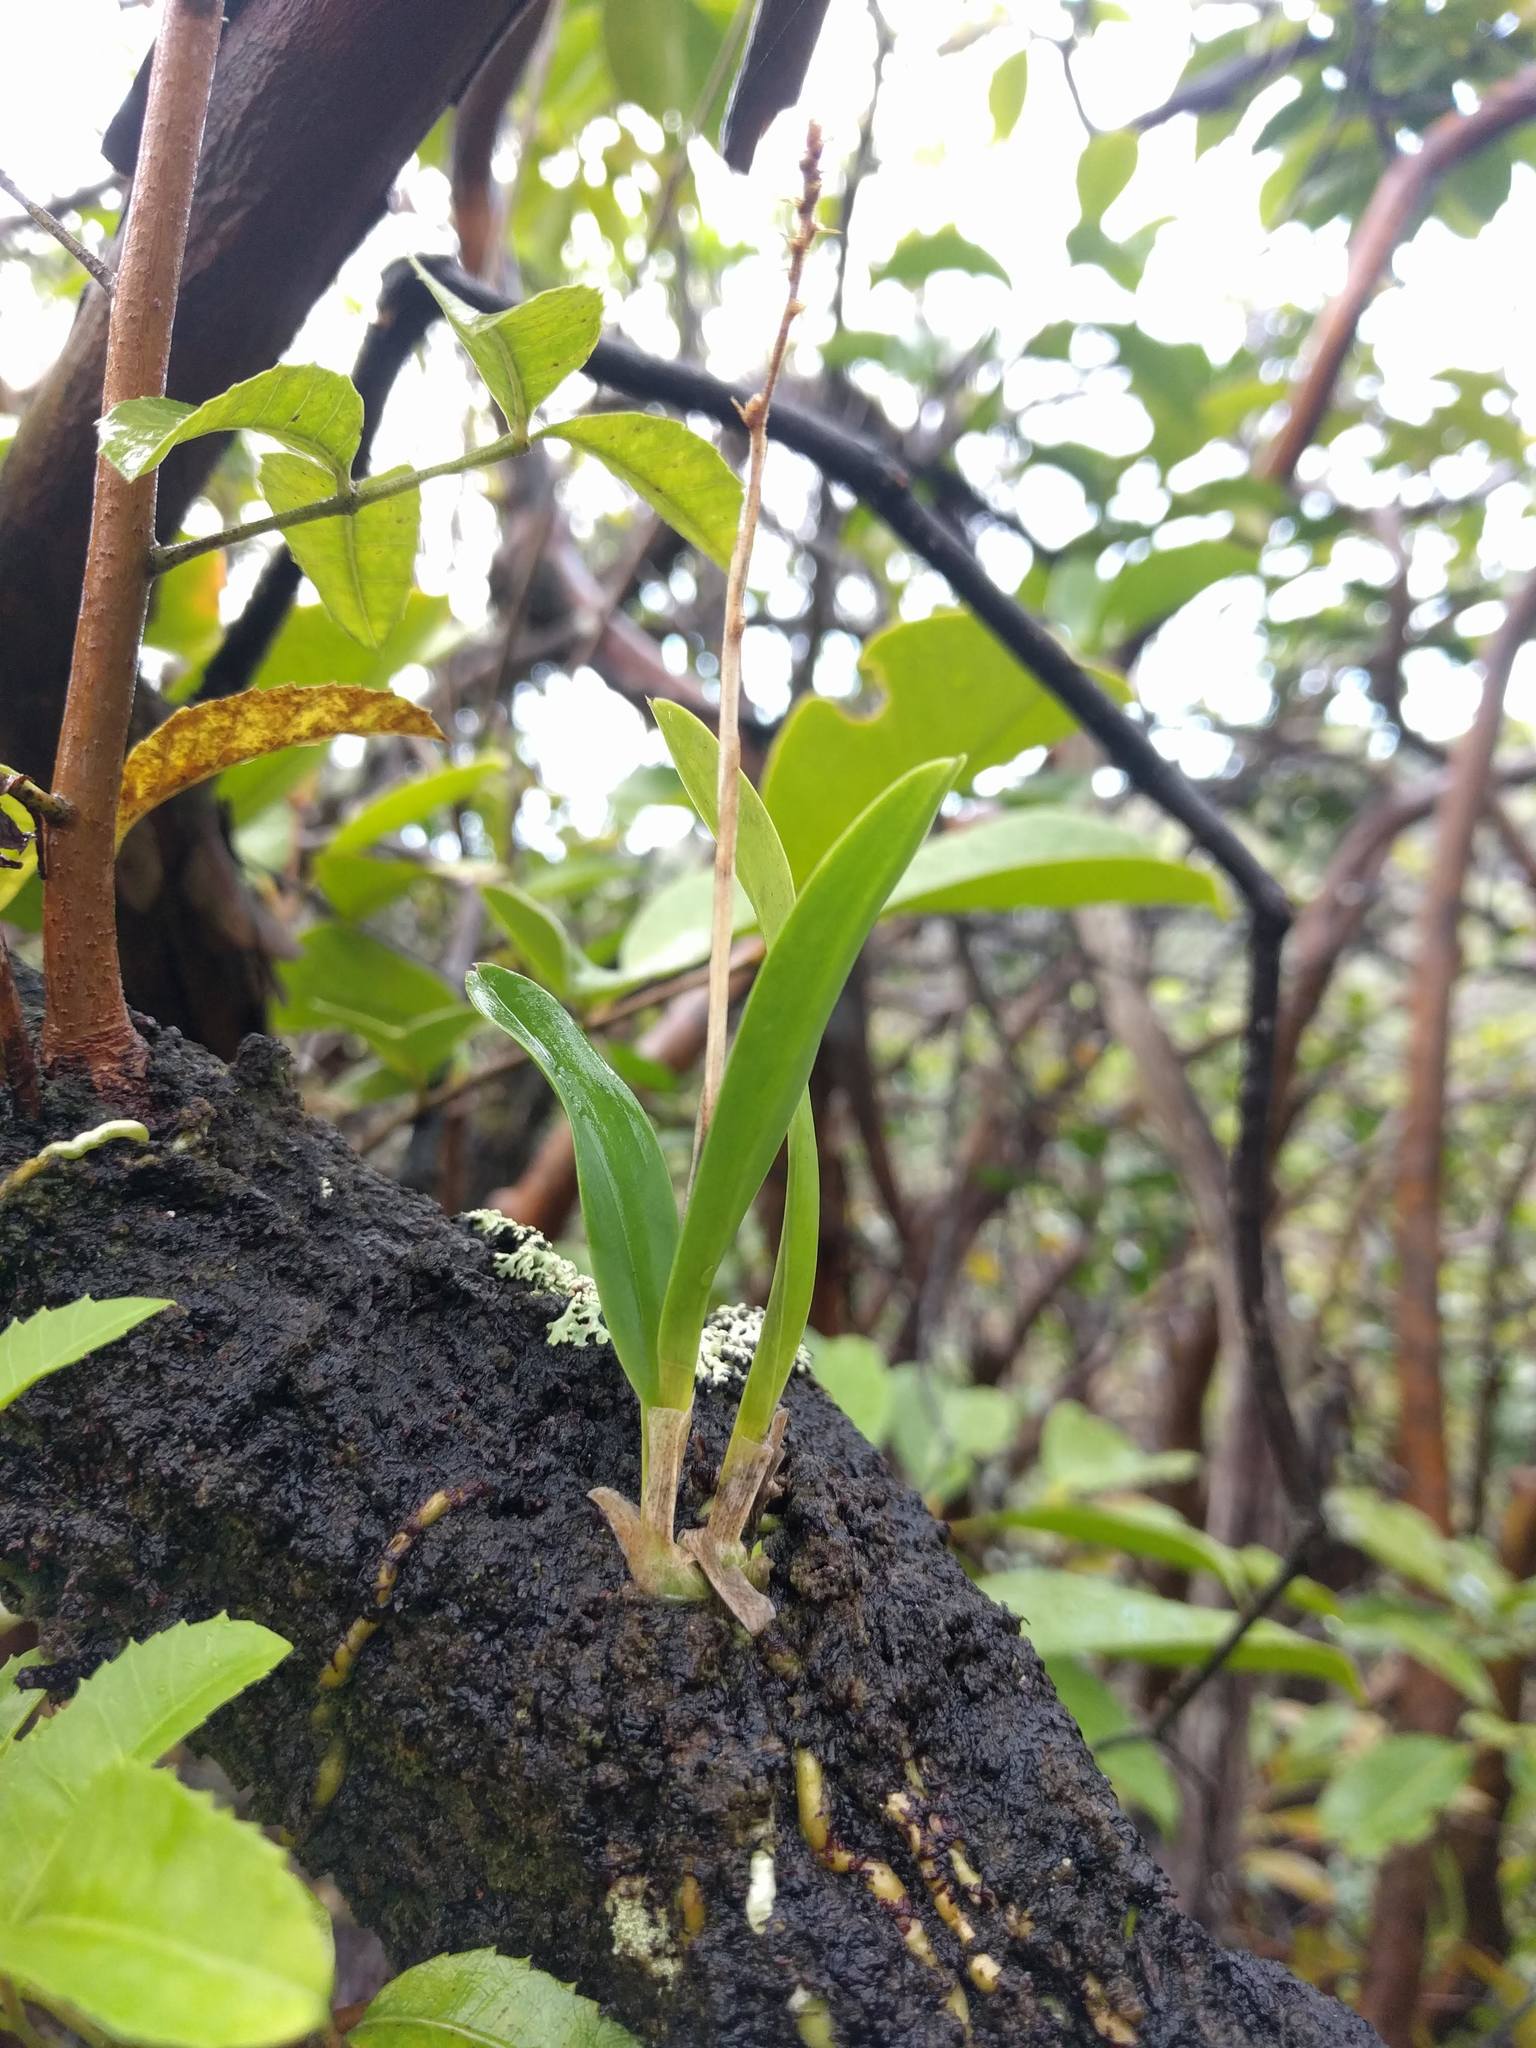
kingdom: Plantae
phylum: Tracheophyta
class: Liliopsida
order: Asparagales
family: Orchidaceae
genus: Polystachya
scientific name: Polystachya concreta
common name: Greater yellowspike orchid
